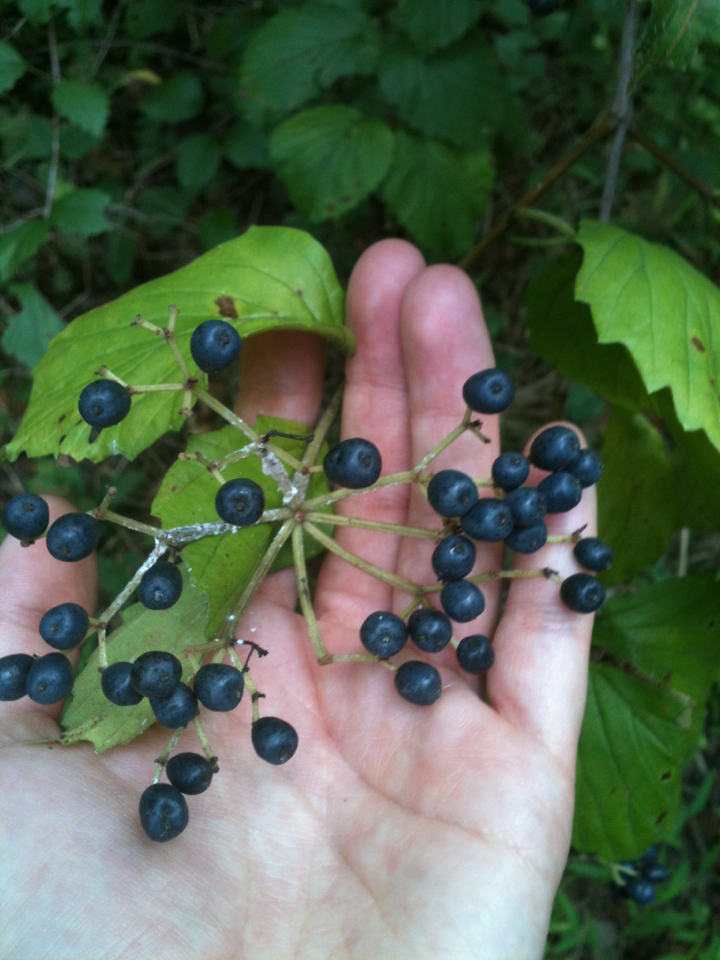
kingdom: Plantae
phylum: Tracheophyta
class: Magnoliopsida
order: Dipsacales
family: Viburnaceae
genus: Viburnum
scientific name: Viburnum dentatum
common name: Arrow-wood
